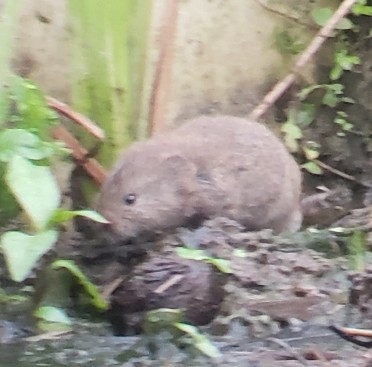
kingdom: Animalia
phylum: Chordata
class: Mammalia
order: Rodentia
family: Cricetidae
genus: Microtus
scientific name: Microtus pennsylvanicus
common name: Meadow vole
